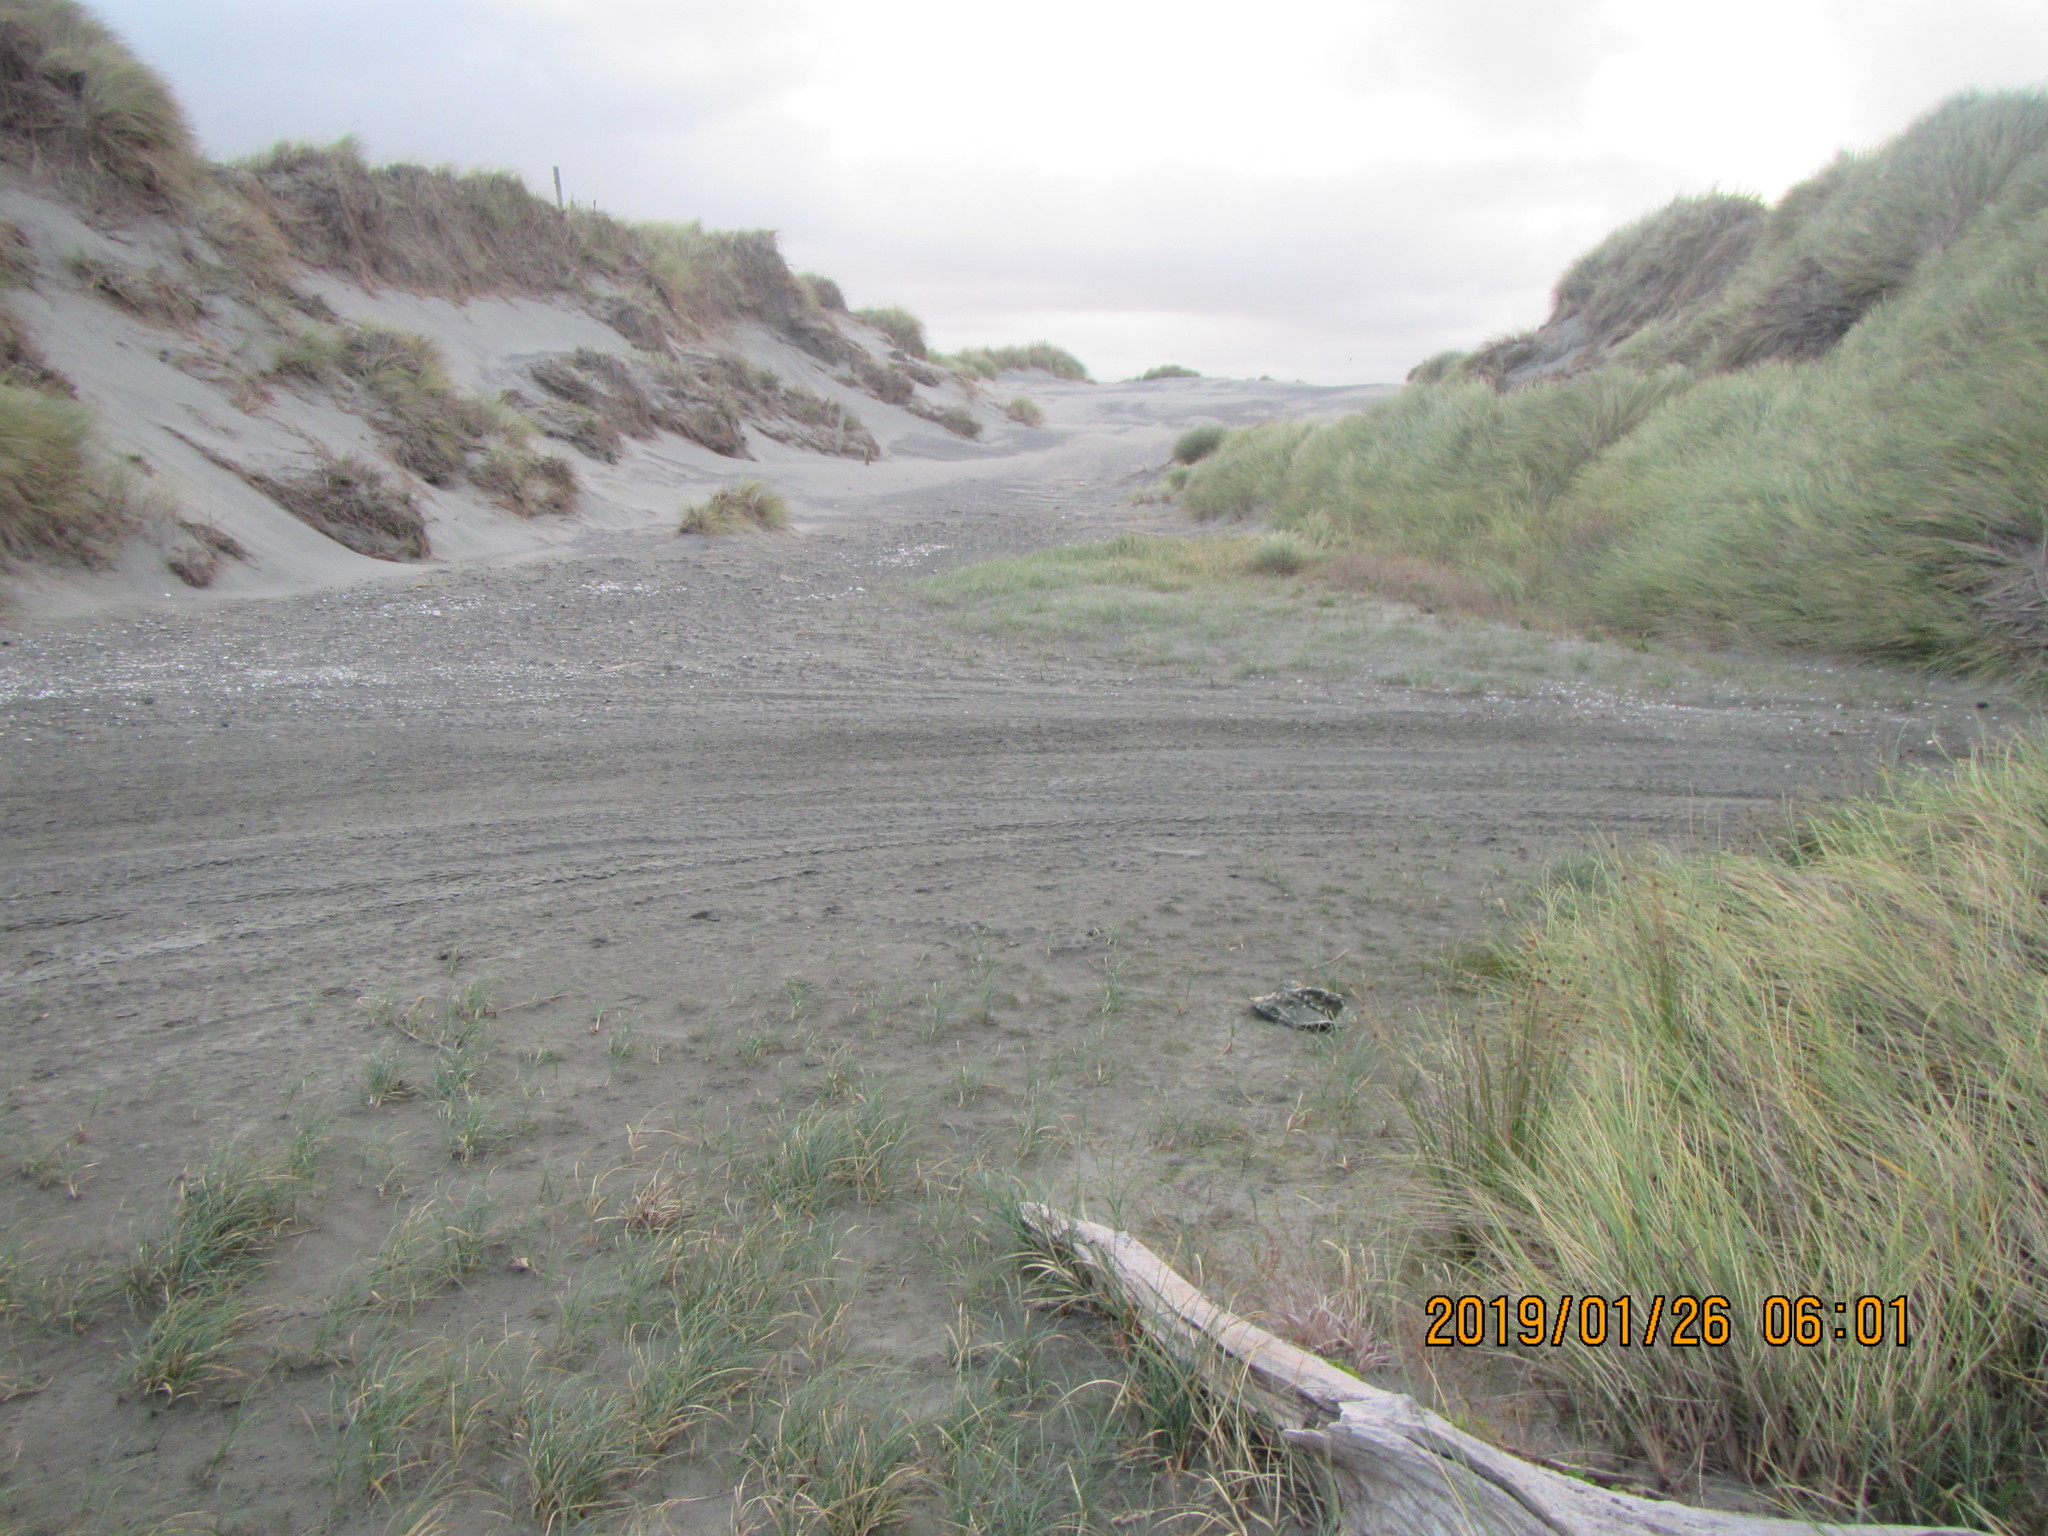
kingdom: Plantae
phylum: Tracheophyta
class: Magnoliopsida
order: Apiales
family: Apiaceae
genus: Lilaeopsis
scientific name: Lilaeopsis novae-zelandiae
